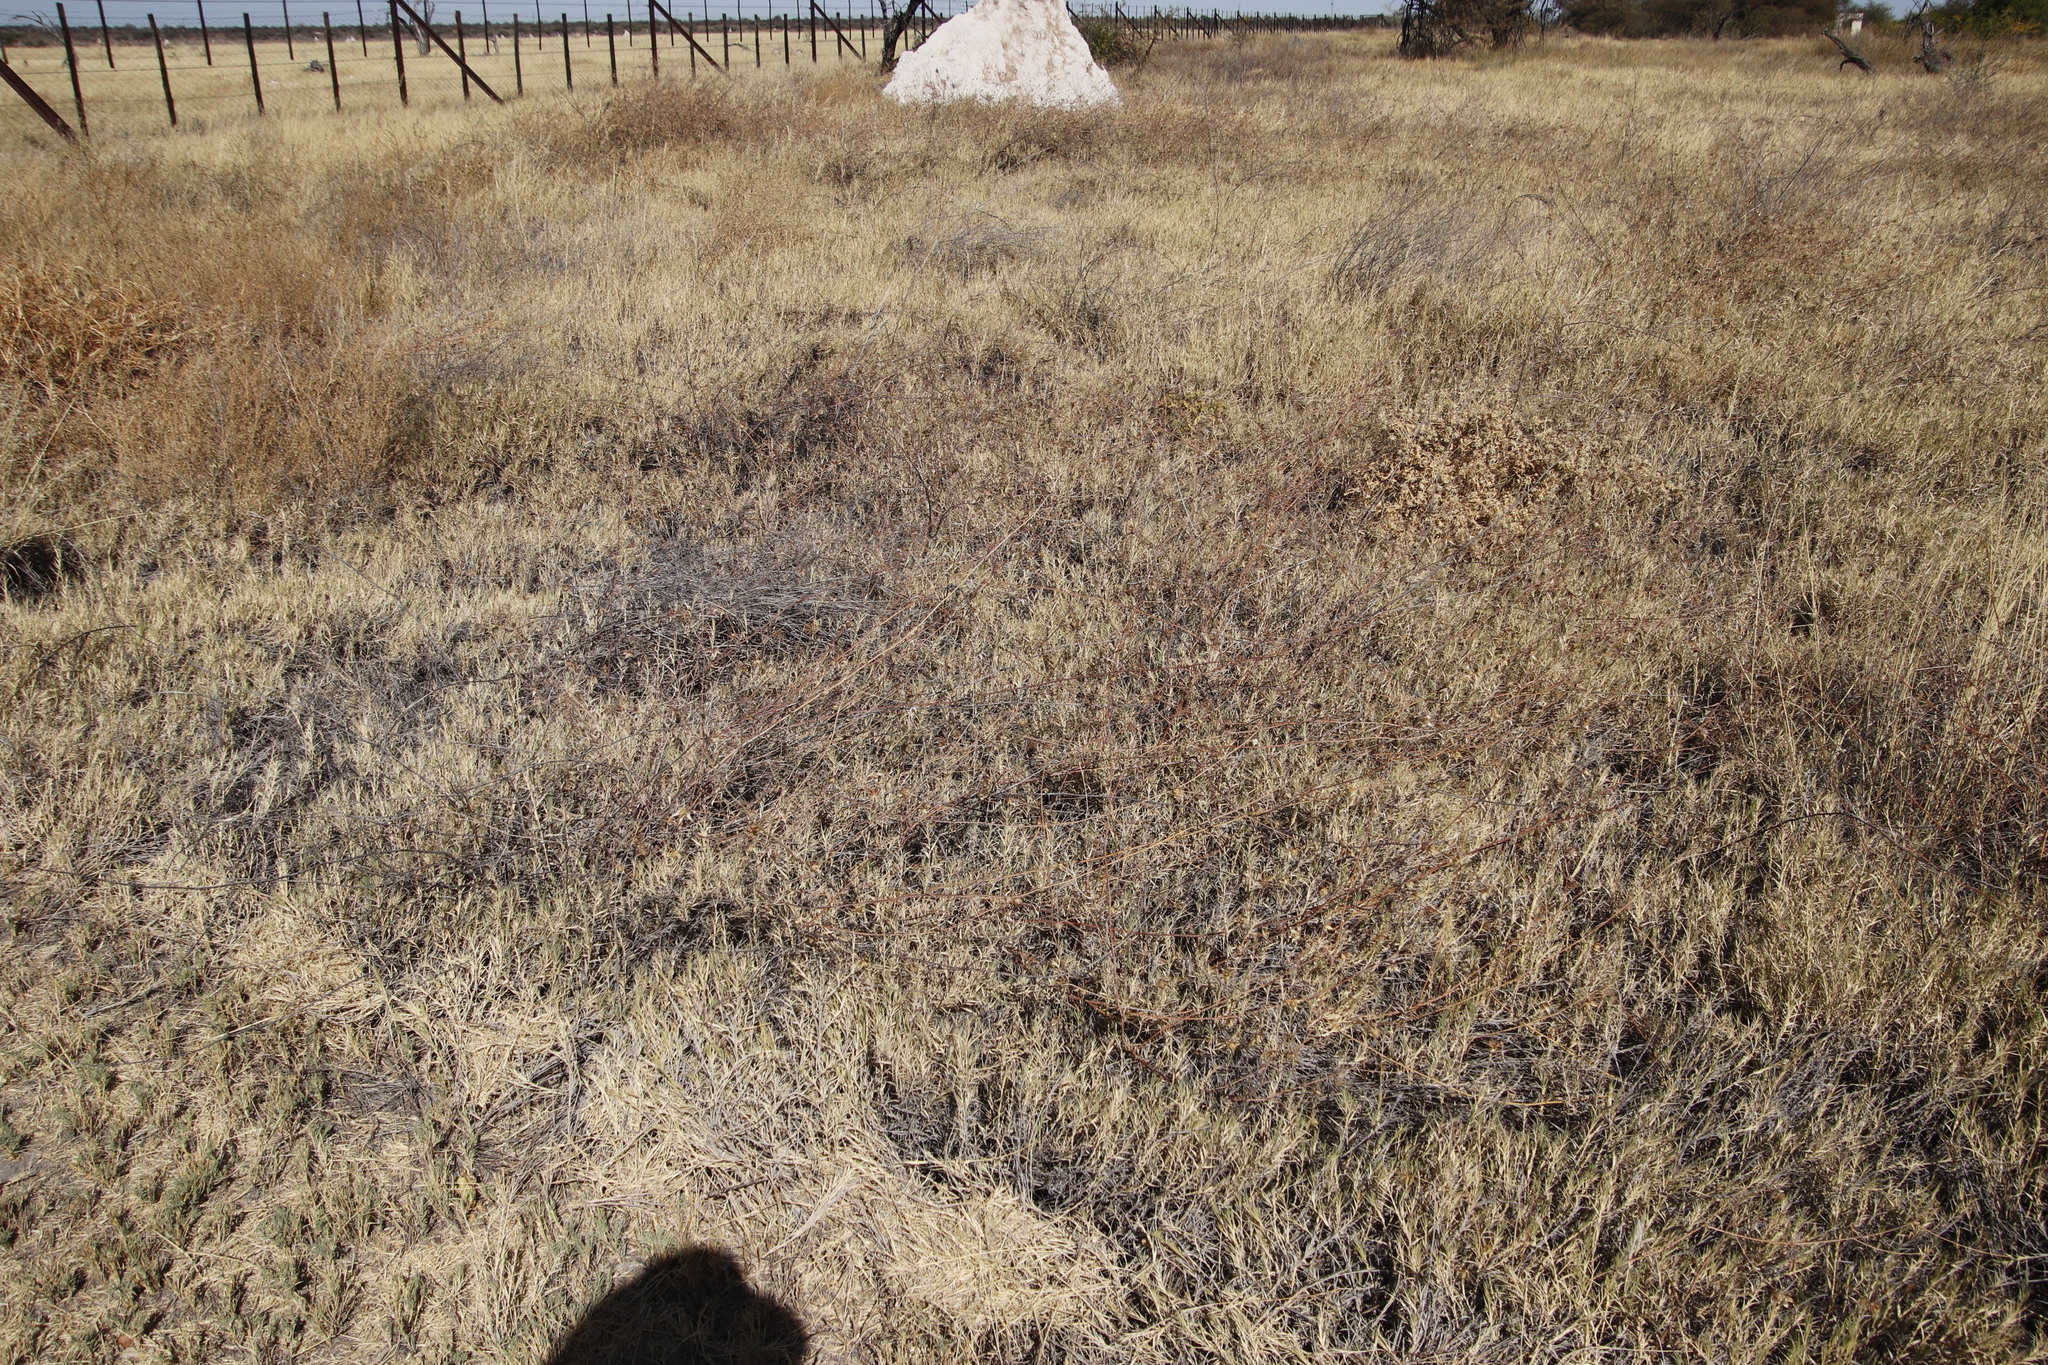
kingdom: Plantae
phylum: Tracheophyta
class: Magnoliopsida
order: Malvales
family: Malvaceae
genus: Hibiscus
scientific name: Hibiscus caesius
